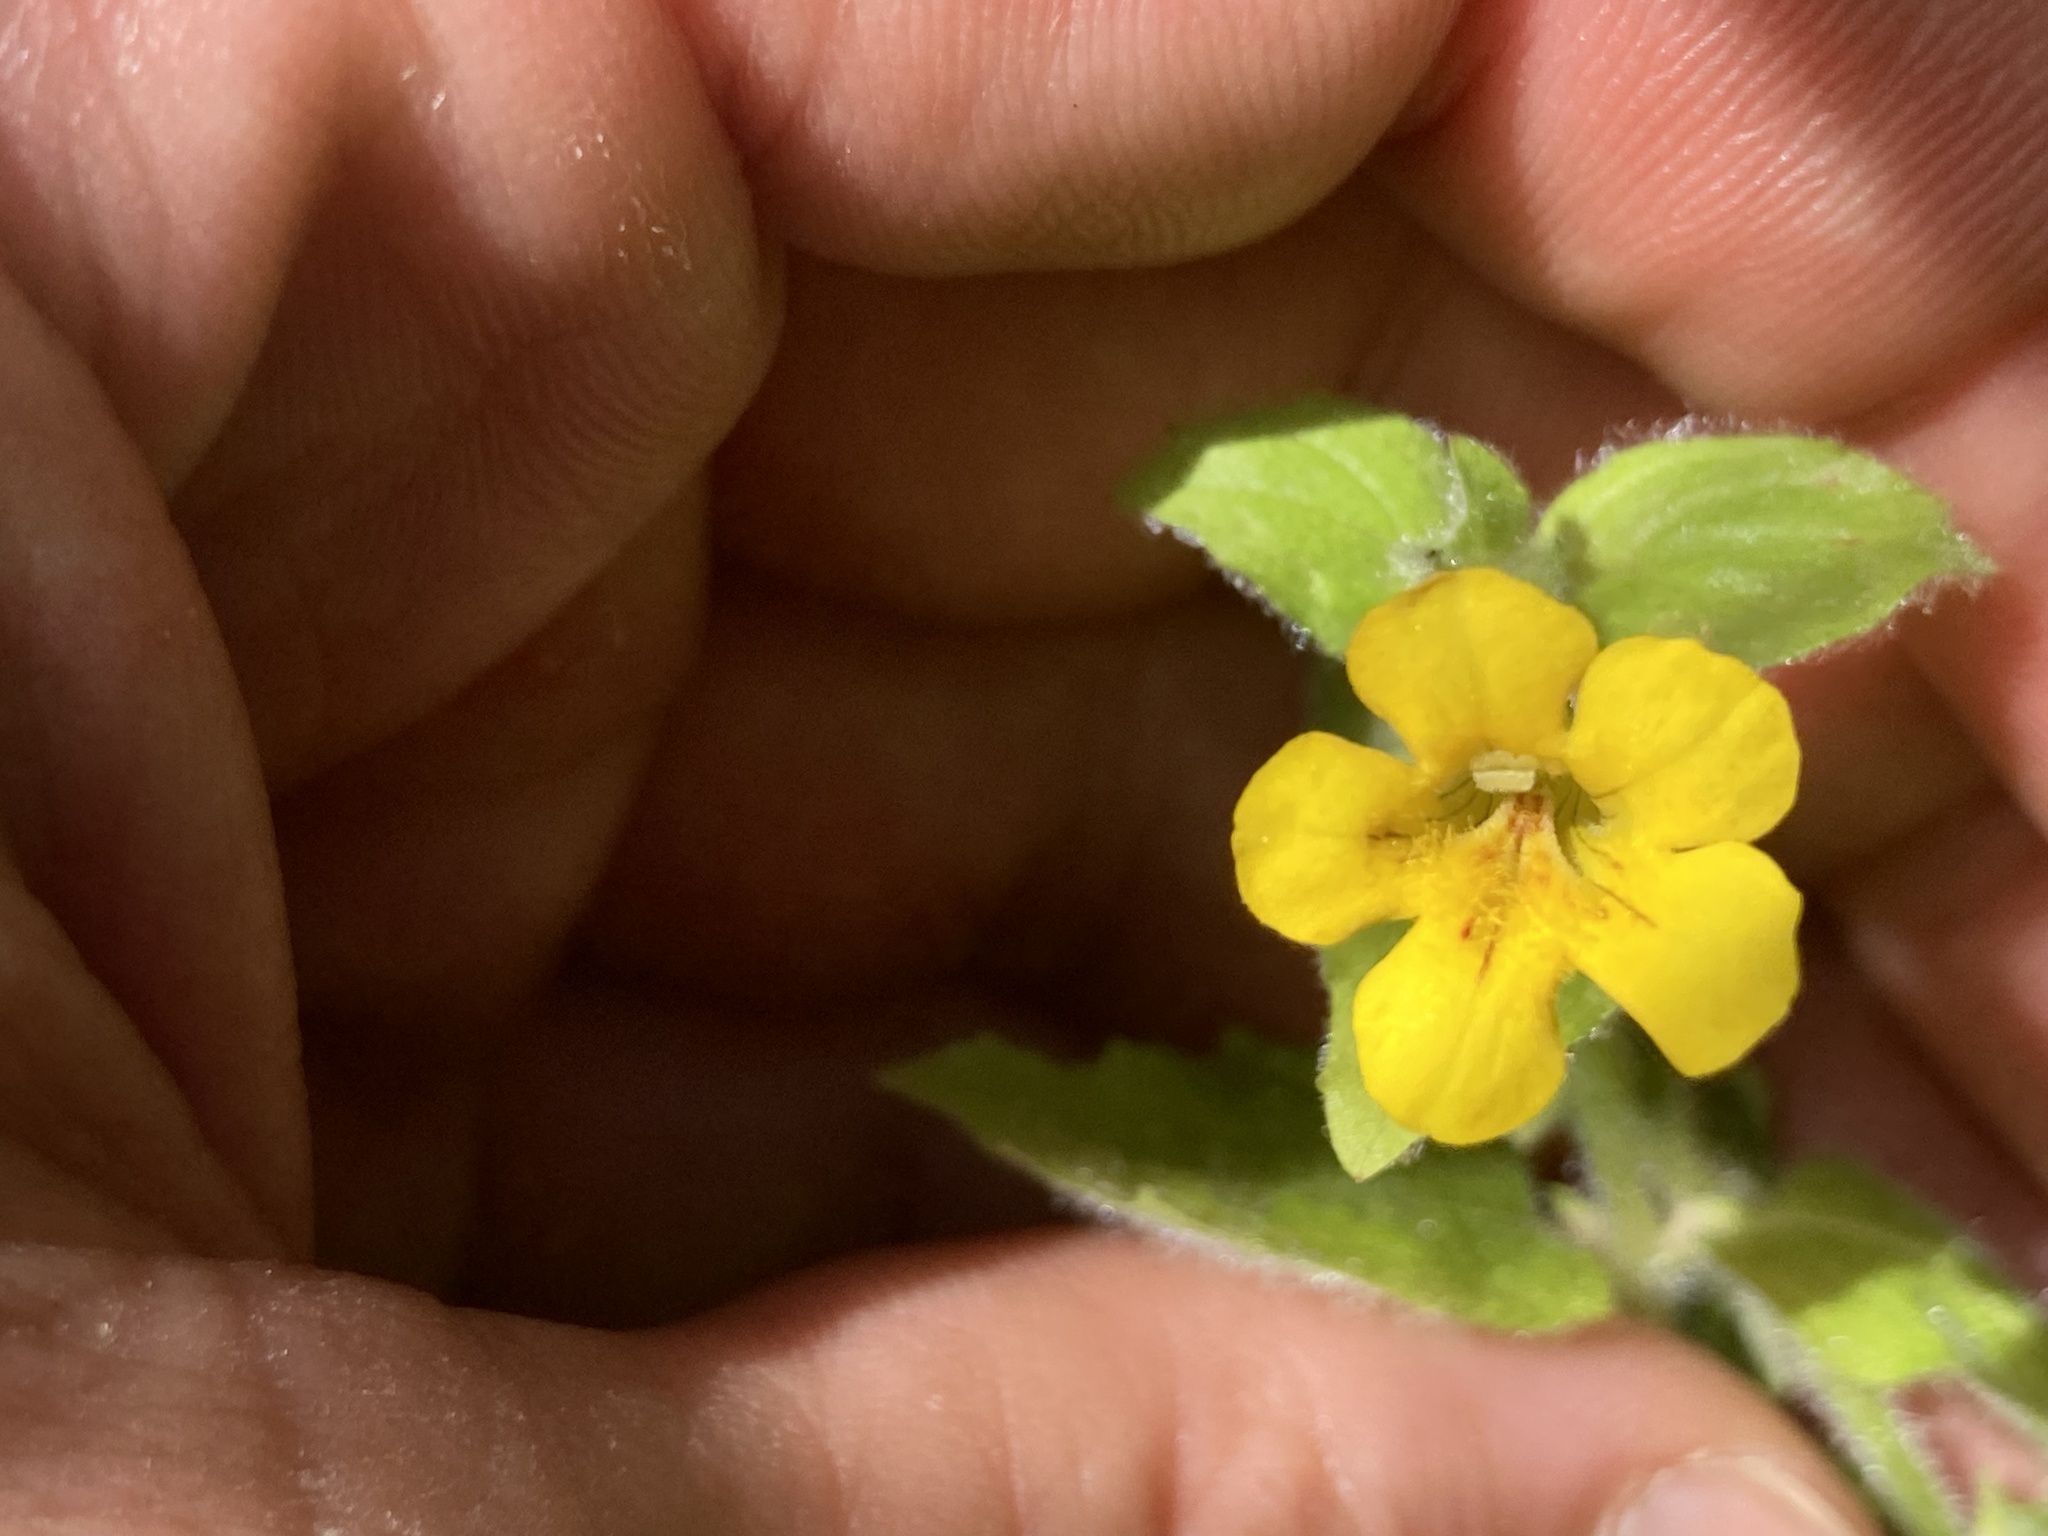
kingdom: Plantae
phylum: Tracheophyta
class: Magnoliopsida
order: Lamiales
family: Phrymaceae
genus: Erythranthe
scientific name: Erythranthe moschata
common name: Muskflower
